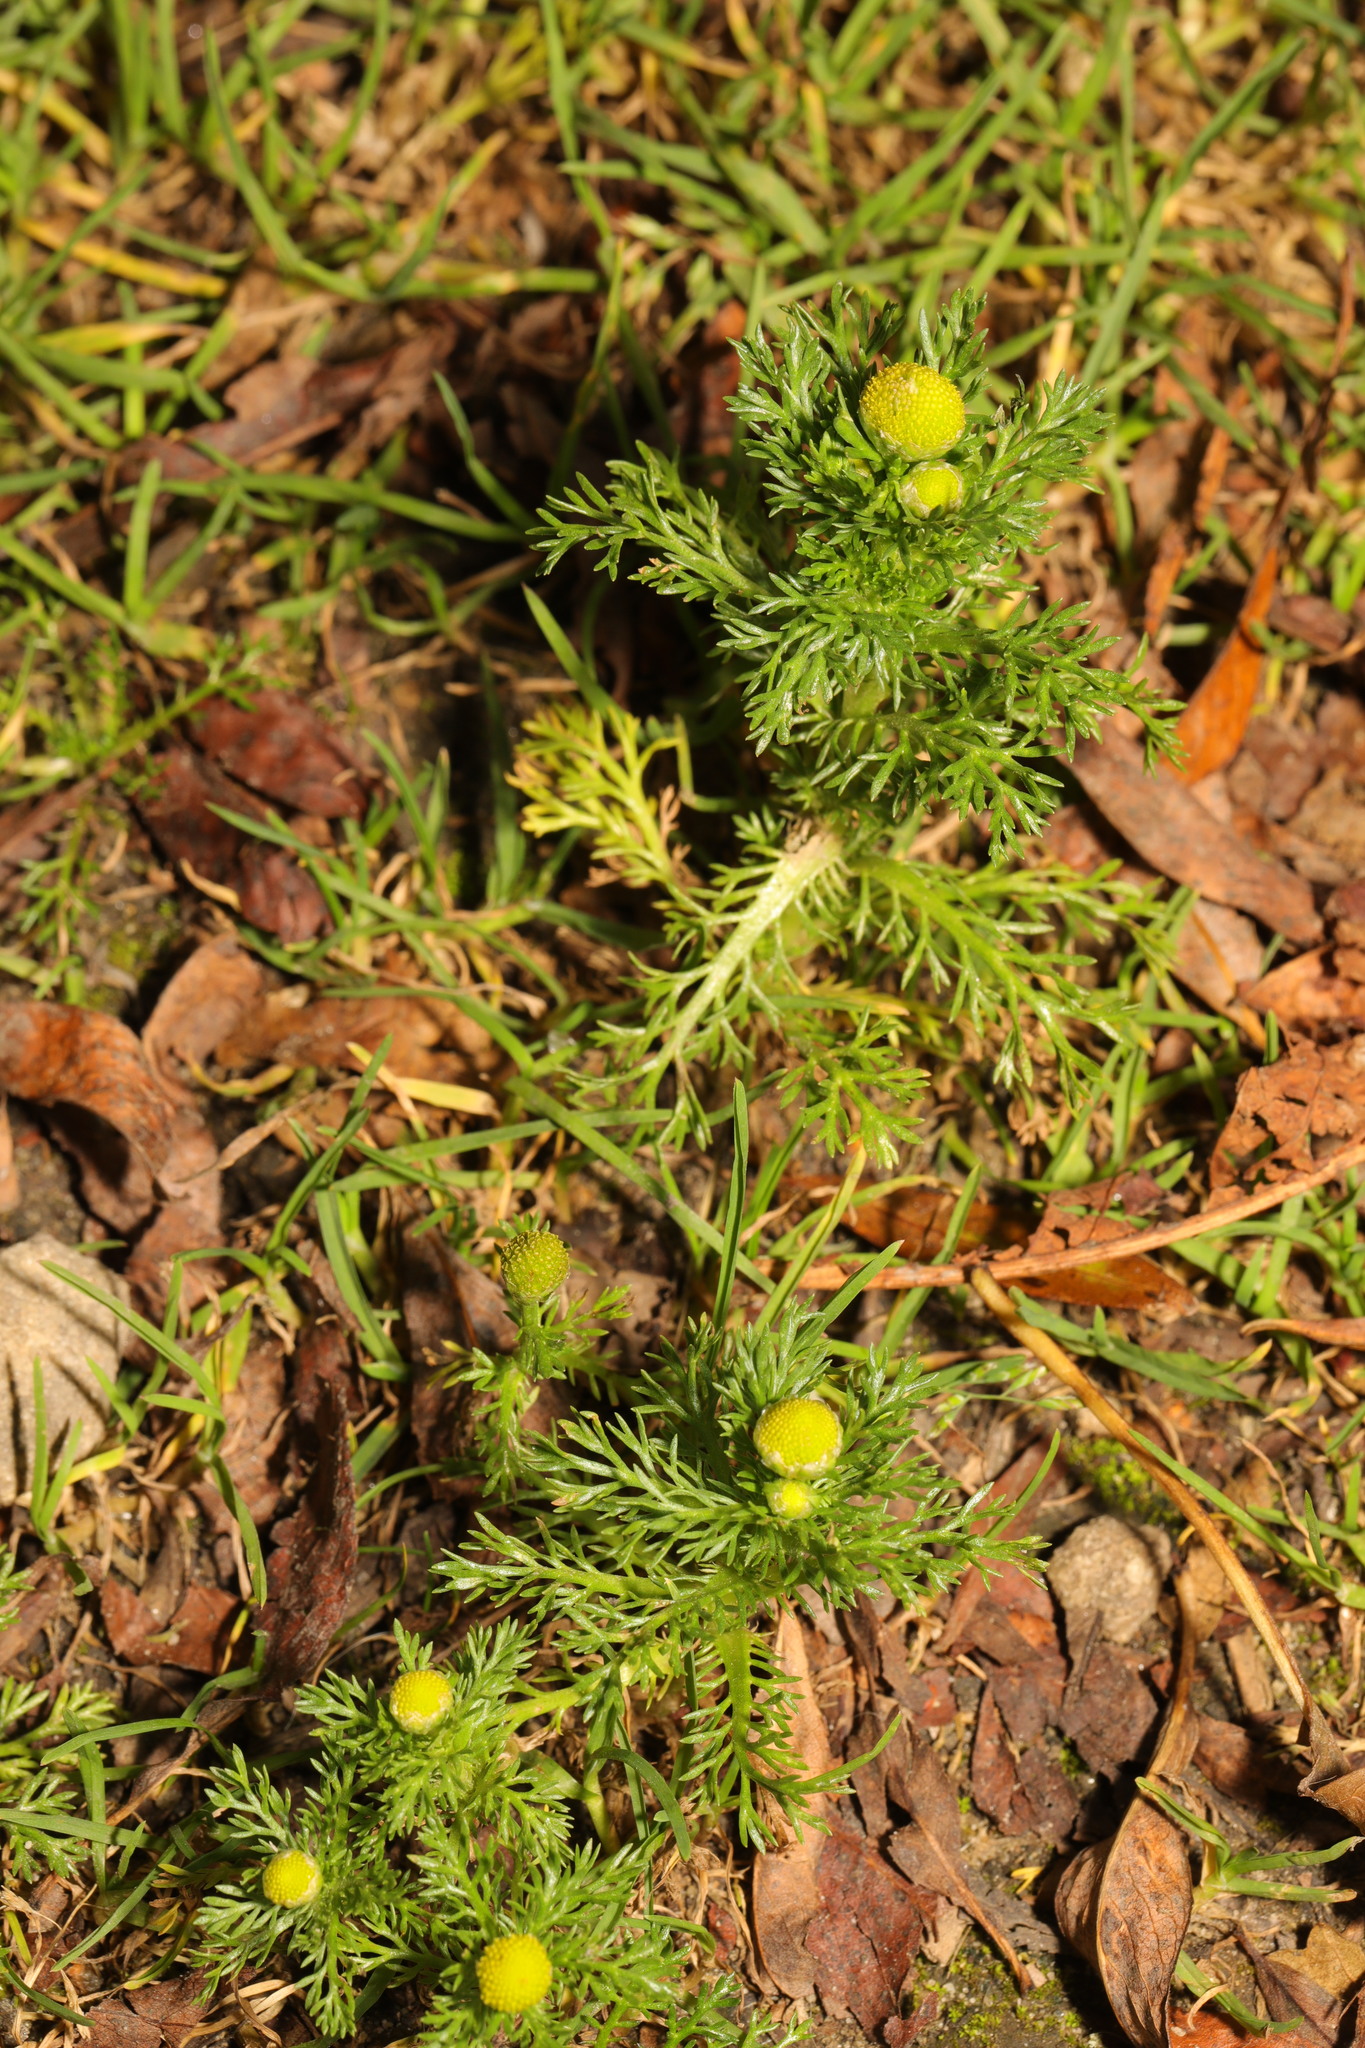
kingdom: Plantae
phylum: Tracheophyta
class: Magnoliopsida
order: Asterales
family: Asteraceae
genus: Matricaria
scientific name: Matricaria discoidea
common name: Disc mayweed
